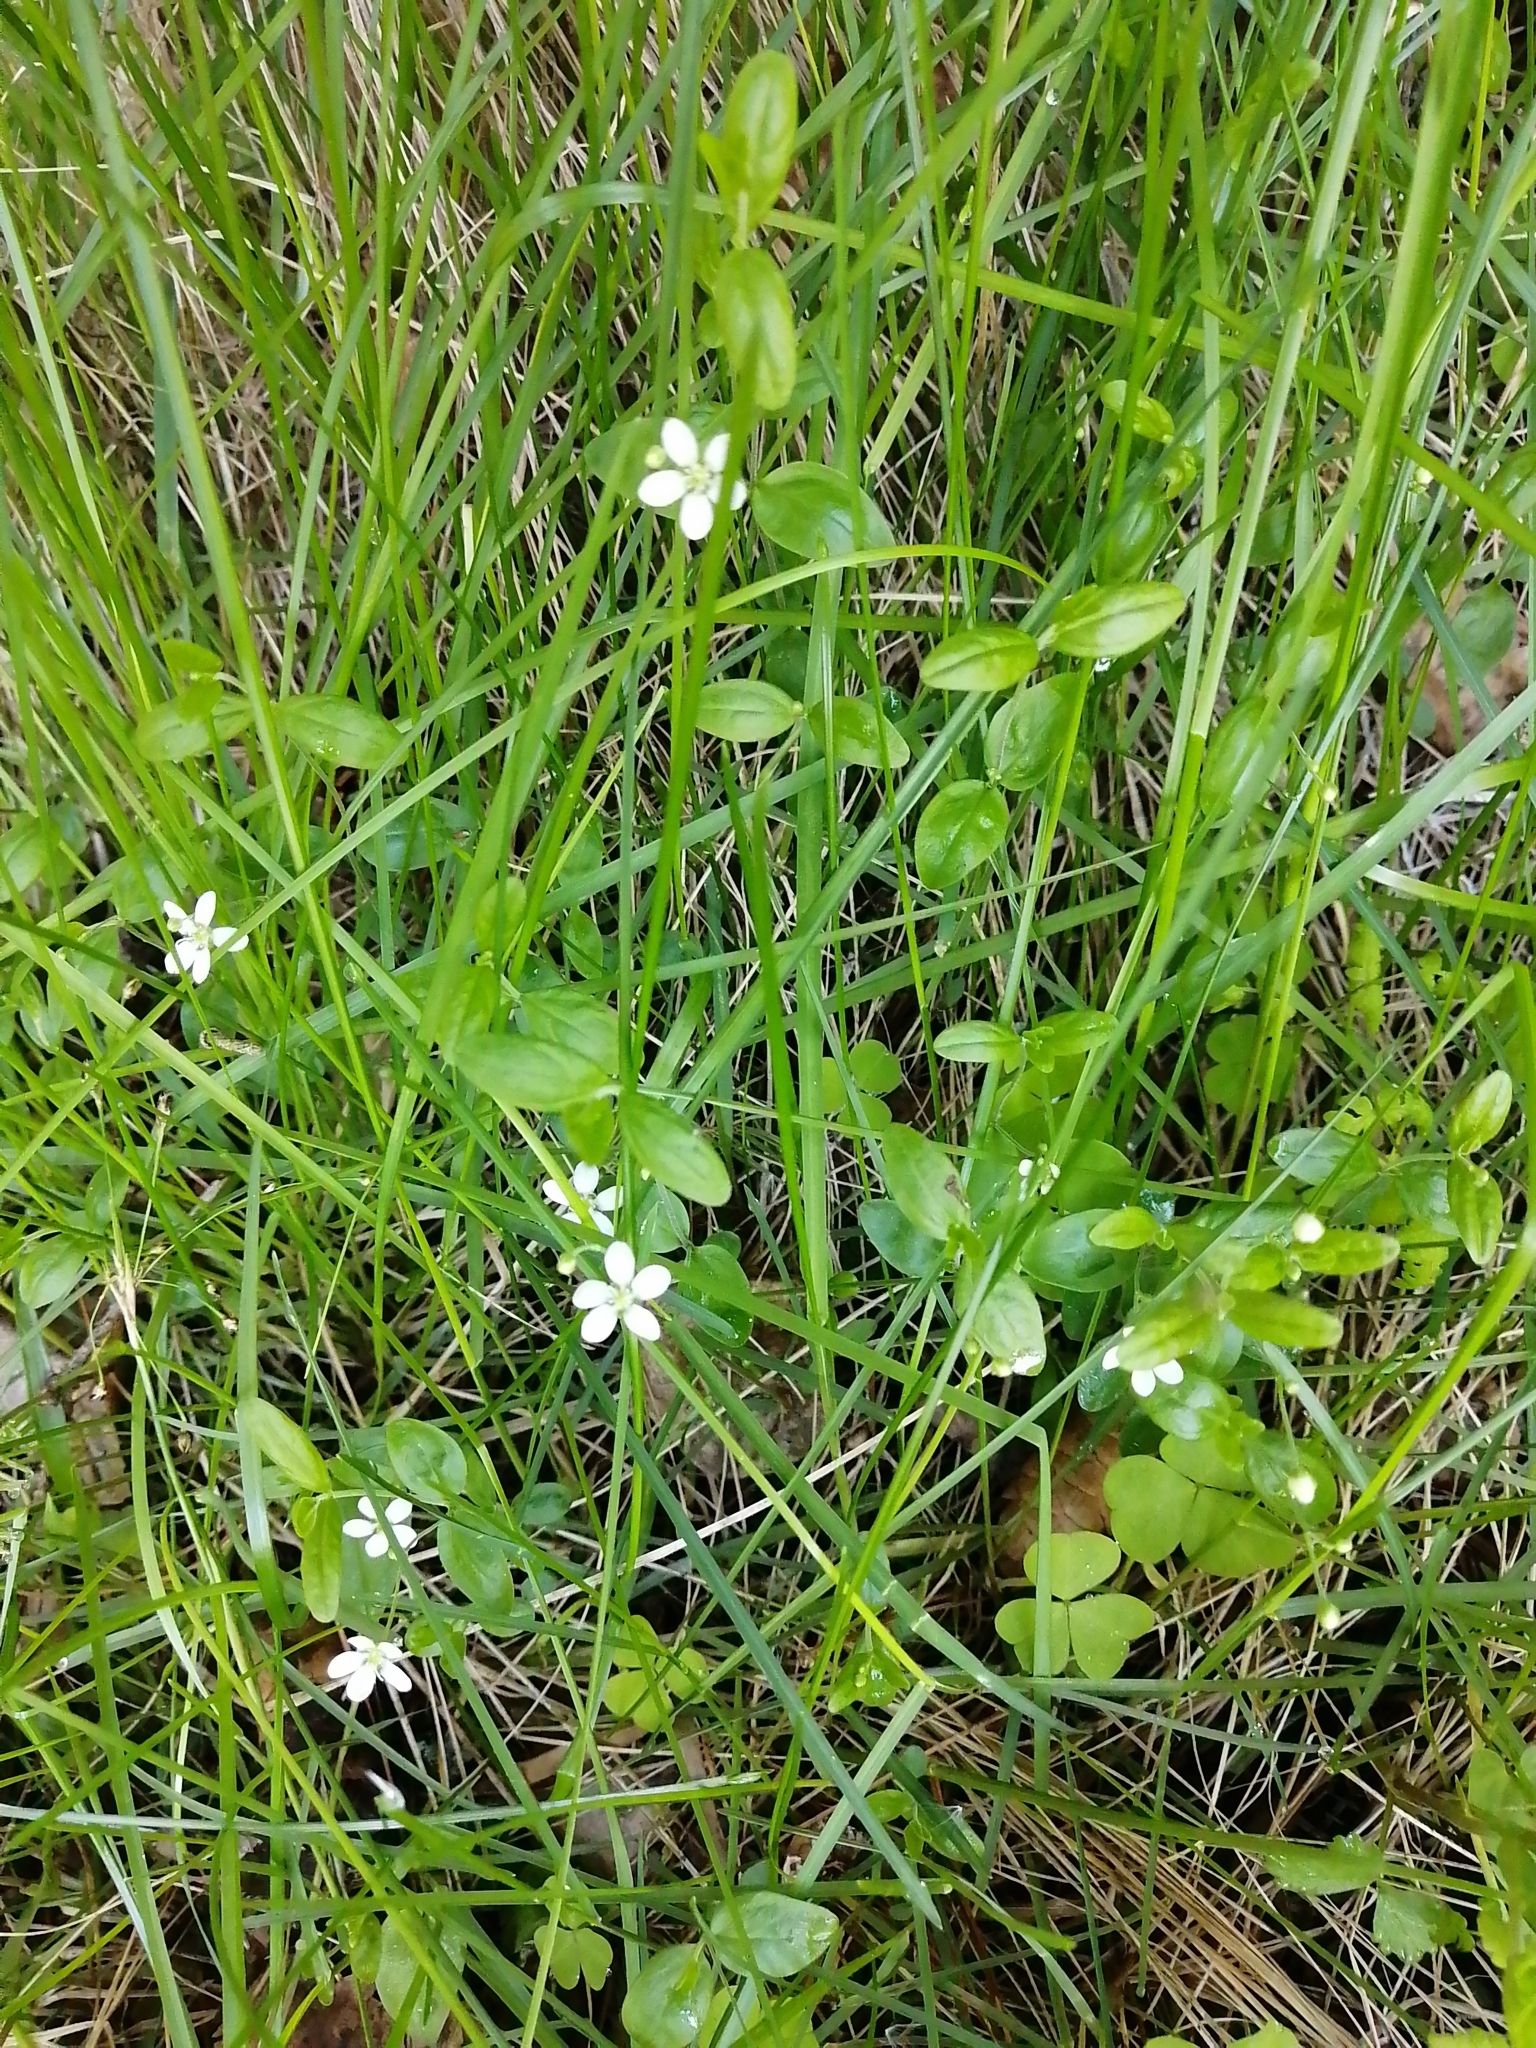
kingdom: Plantae
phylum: Tracheophyta
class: Magnoliopsida
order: Caryophyllales
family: Caryophyllaceae
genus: Moehringia
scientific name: Moehringia lateriflora
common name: Blunt-leaved sandwort
